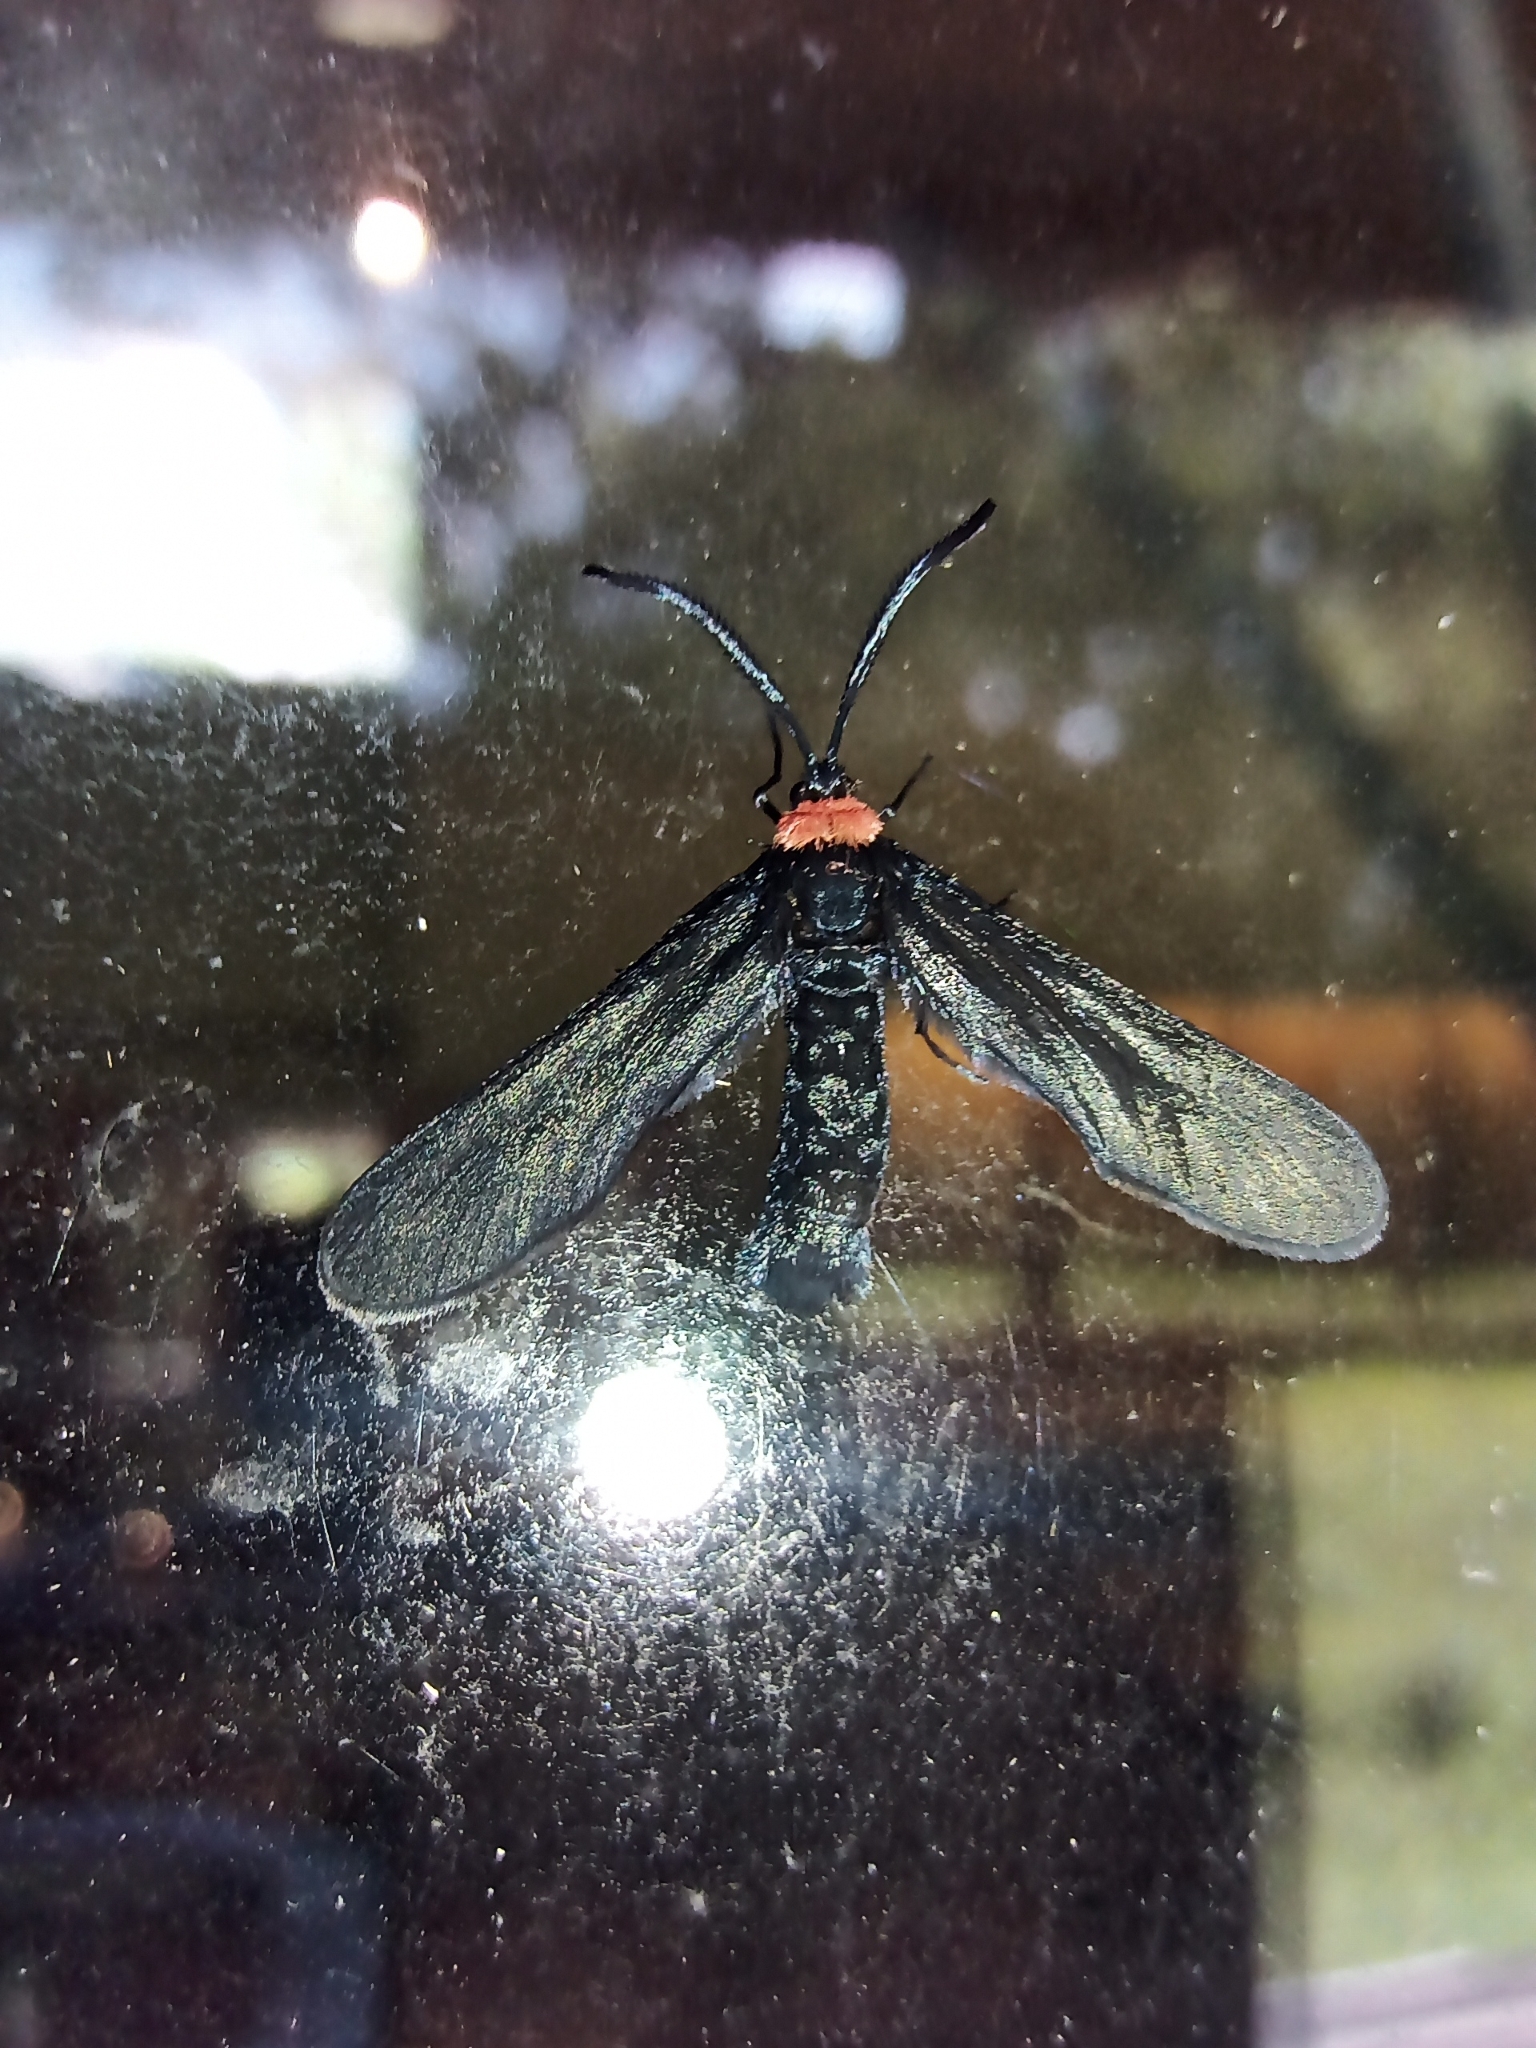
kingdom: Animalia
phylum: Arthropoda
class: Insecta
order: Lepidoptera
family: Zygaenidae
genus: Harrisina
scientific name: Harrisina americana
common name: Grapeleaf skeletonizer moth
